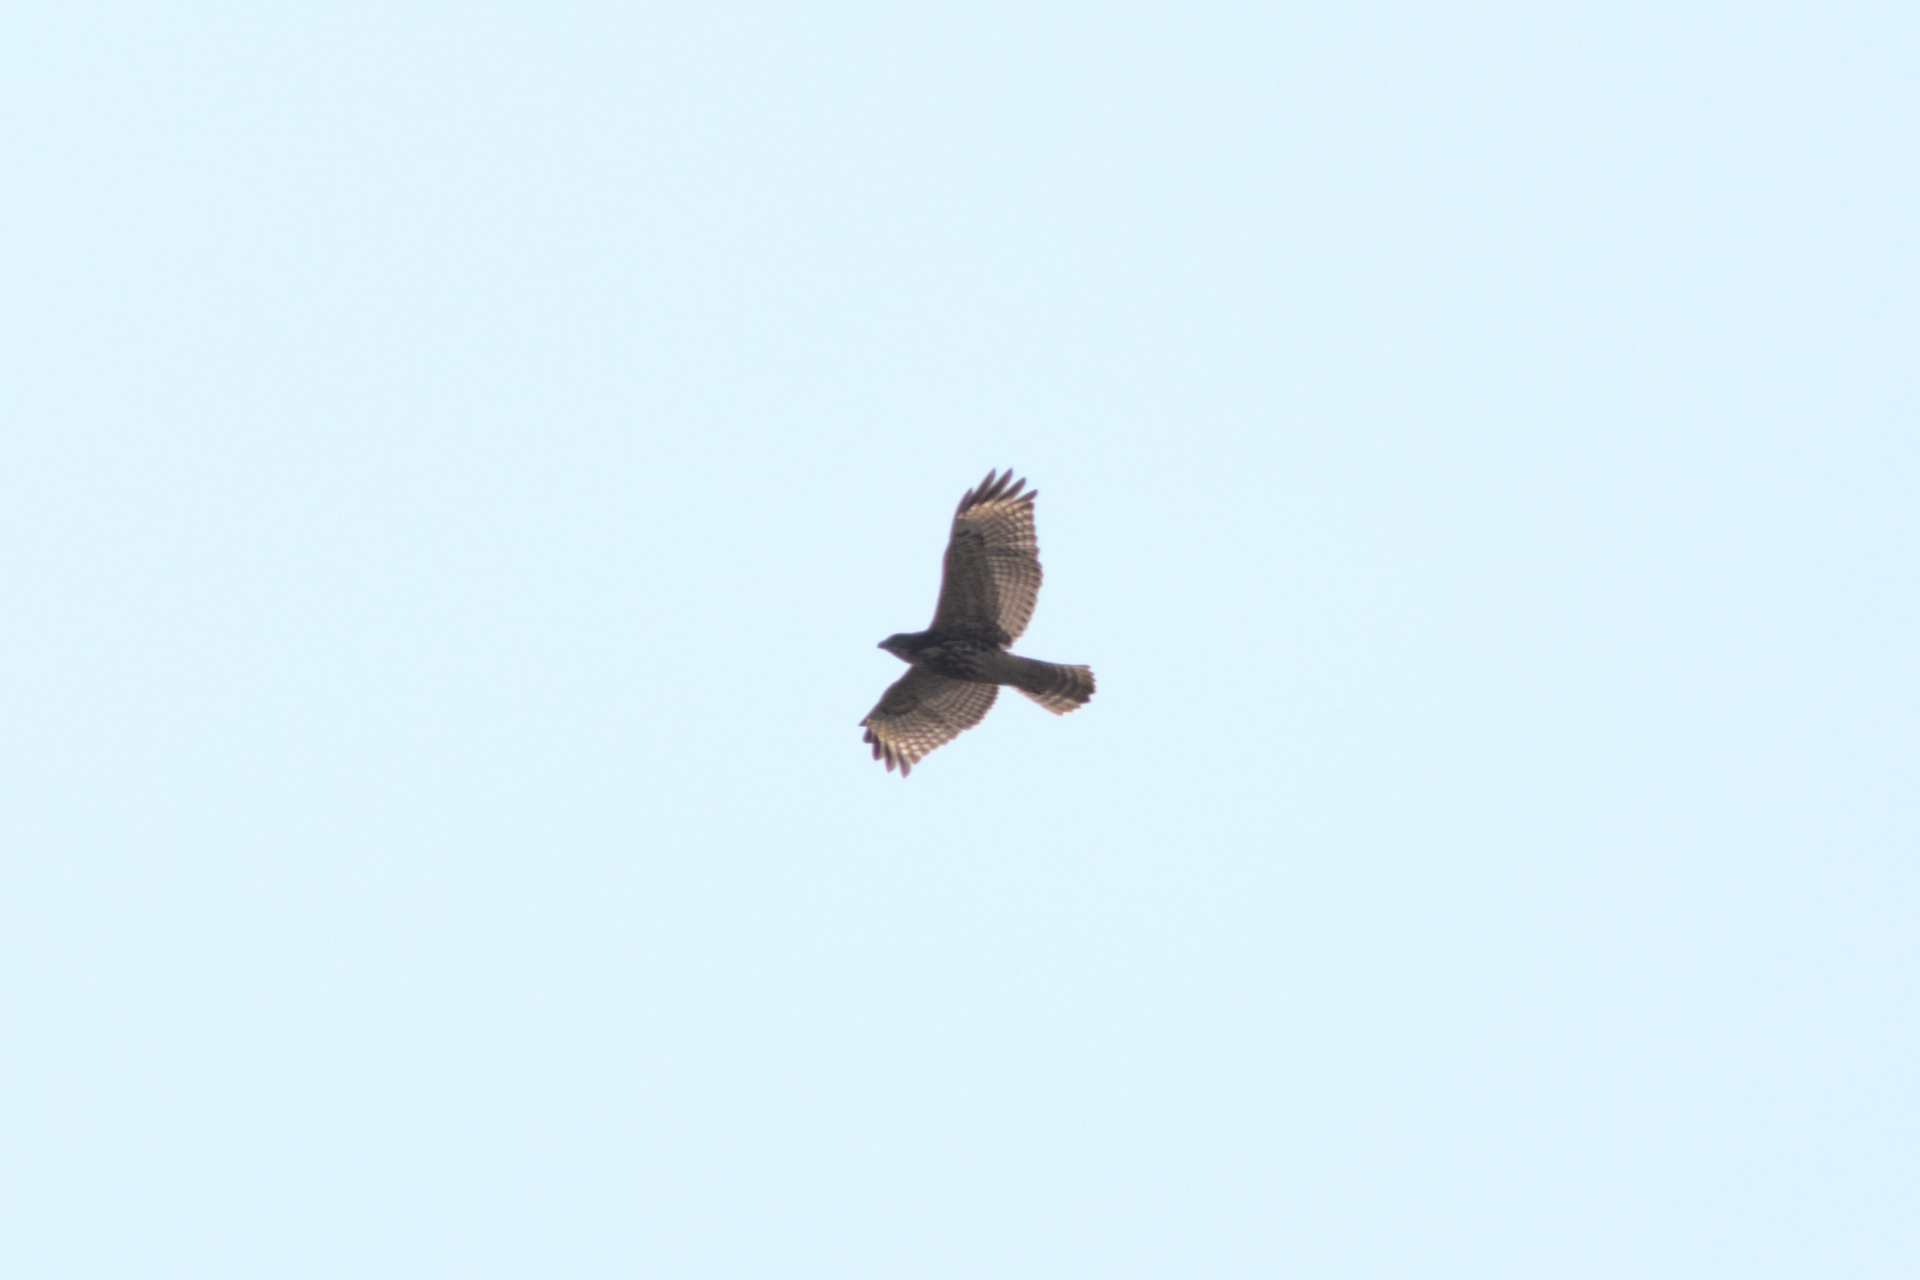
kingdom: Animalia
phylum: Chordata
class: Aves
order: Accipitriformes
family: Accipitridae
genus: Buteo
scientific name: Buteo lineatus
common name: Red-shouldered hawk
